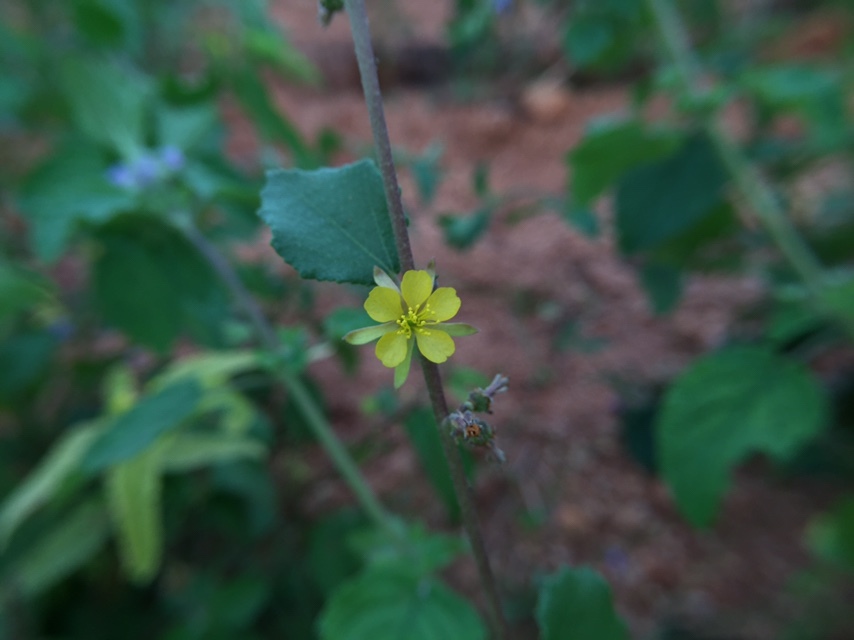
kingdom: Plantae
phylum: Tracheophyta
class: Magnoliopsida
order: Malvales
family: Malvaceae
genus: Triumfetta
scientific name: Triumfetta rhomboidea
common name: Diamond burbark
